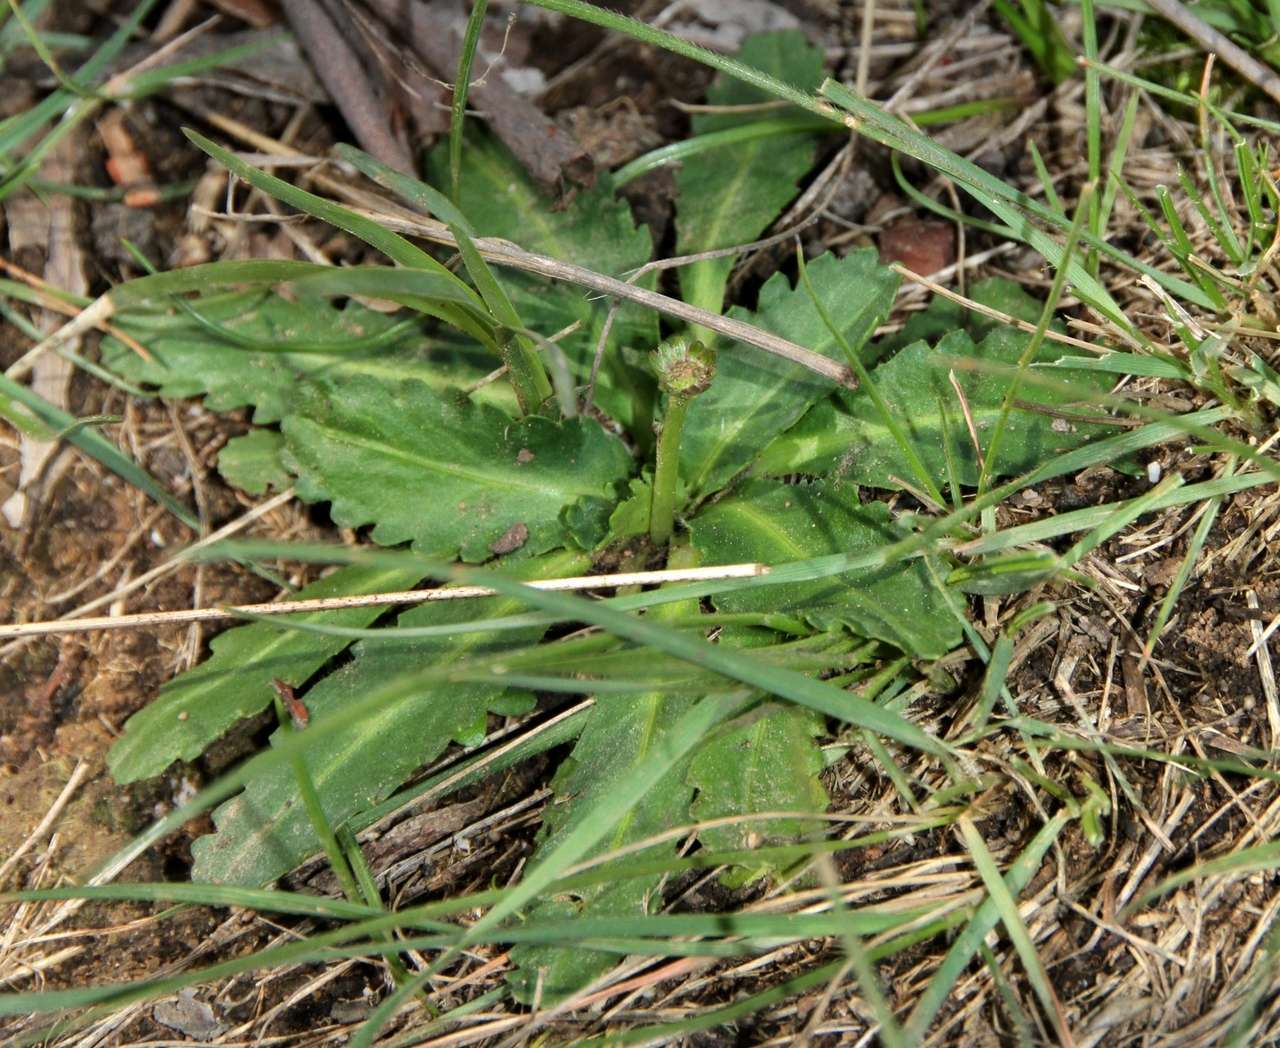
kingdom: Plantae
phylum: Tracheophyta
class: Magnoliopsida
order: Asterales
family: Asteraceae
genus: Solenogyne
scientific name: Solenogyne dominii
